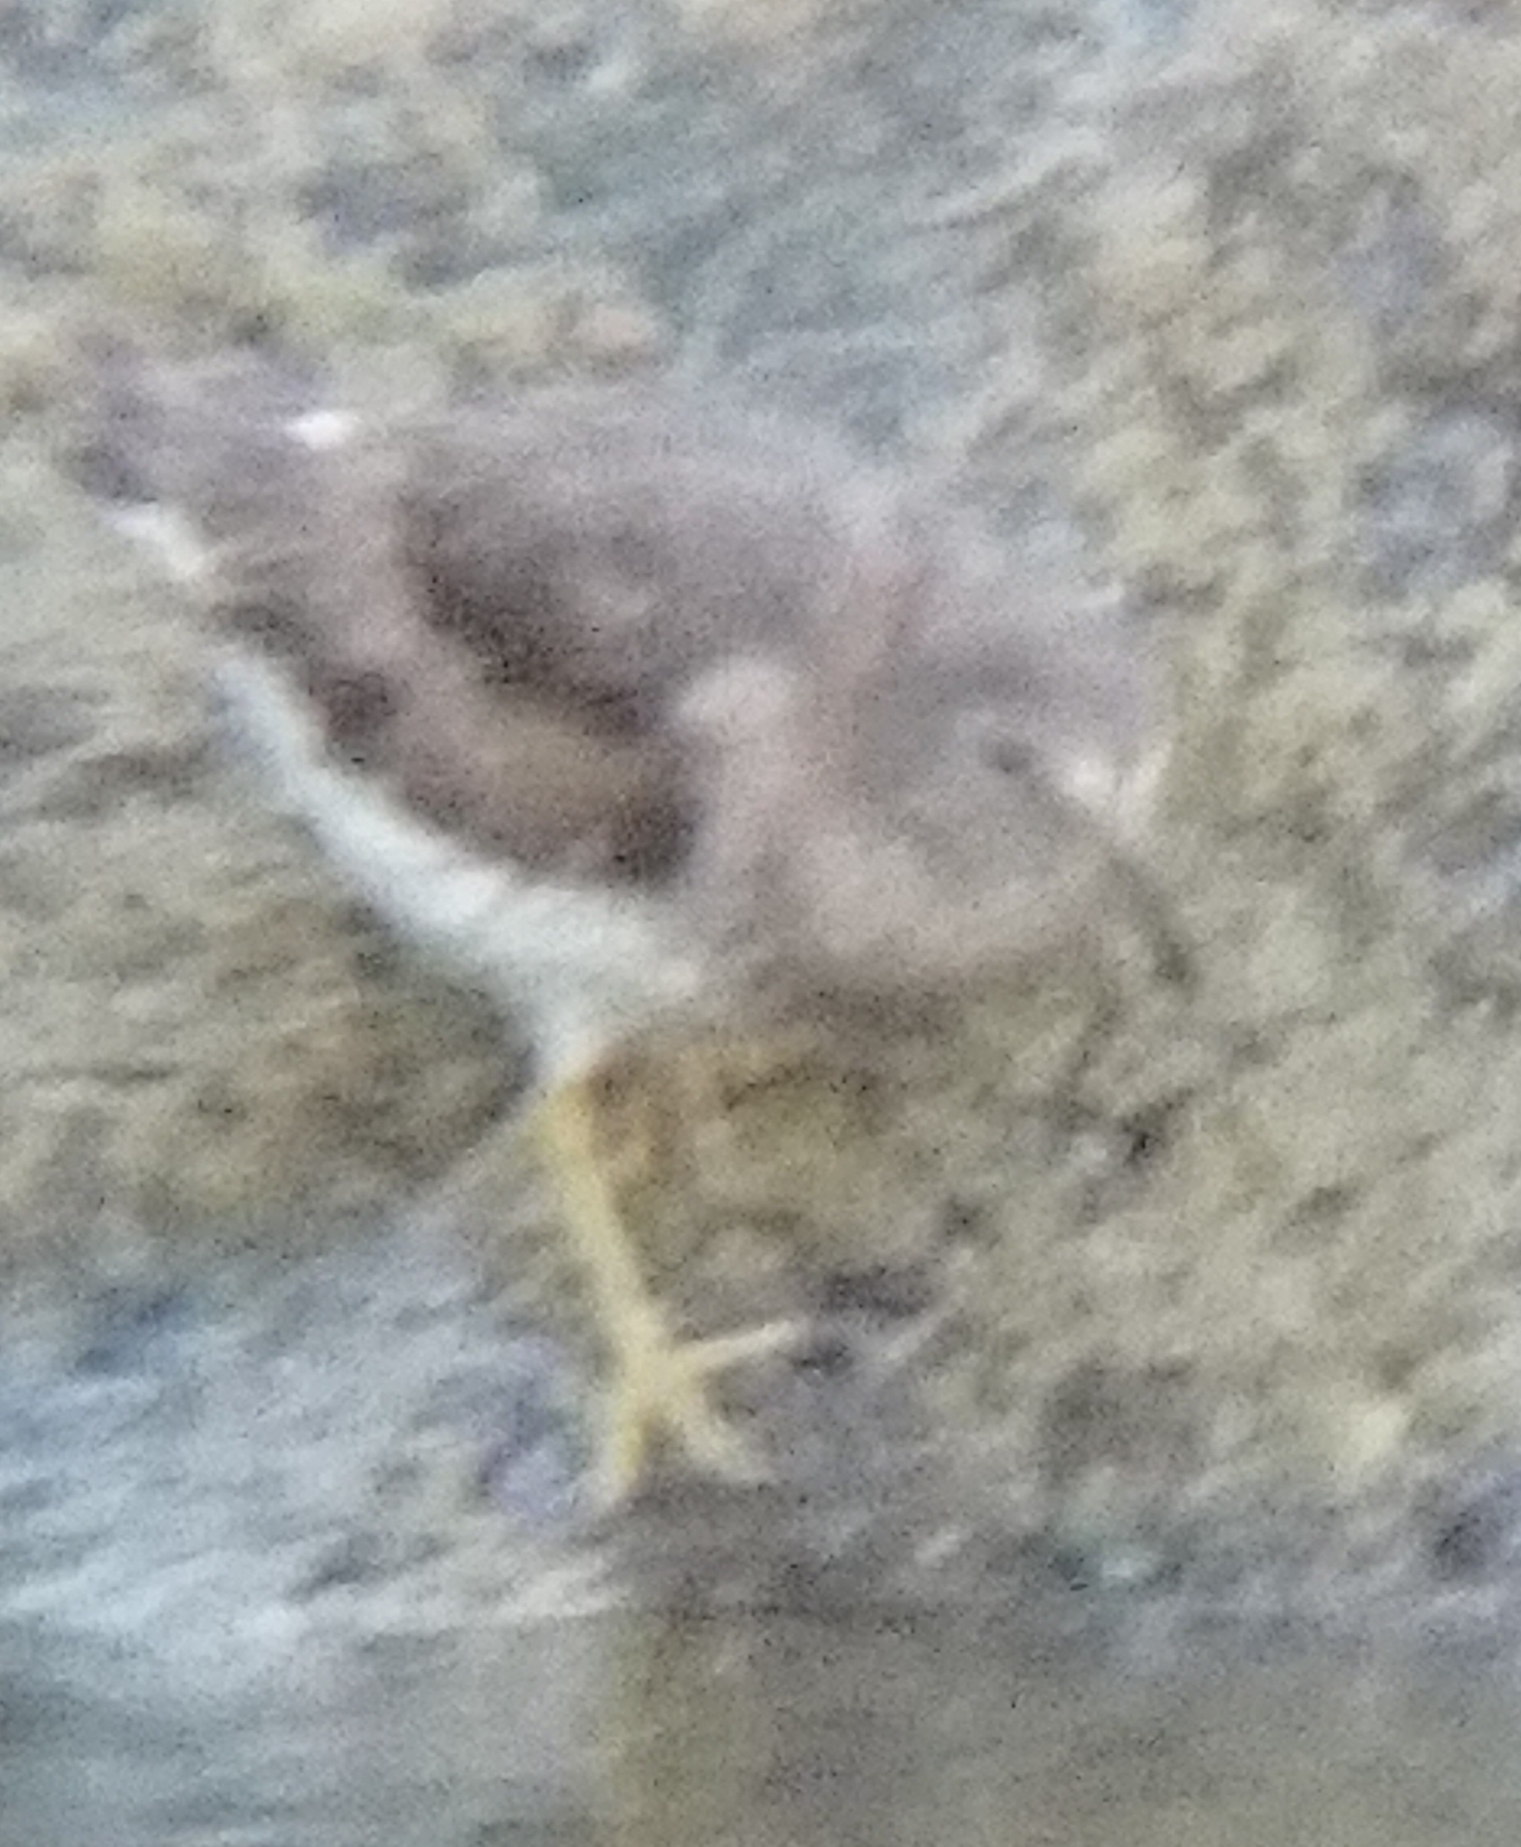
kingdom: Animalia
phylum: Chordata
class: Aves
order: Charadriiformes
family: Scolopacidae
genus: Calidris
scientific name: Calidris virgata
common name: Surfbird
